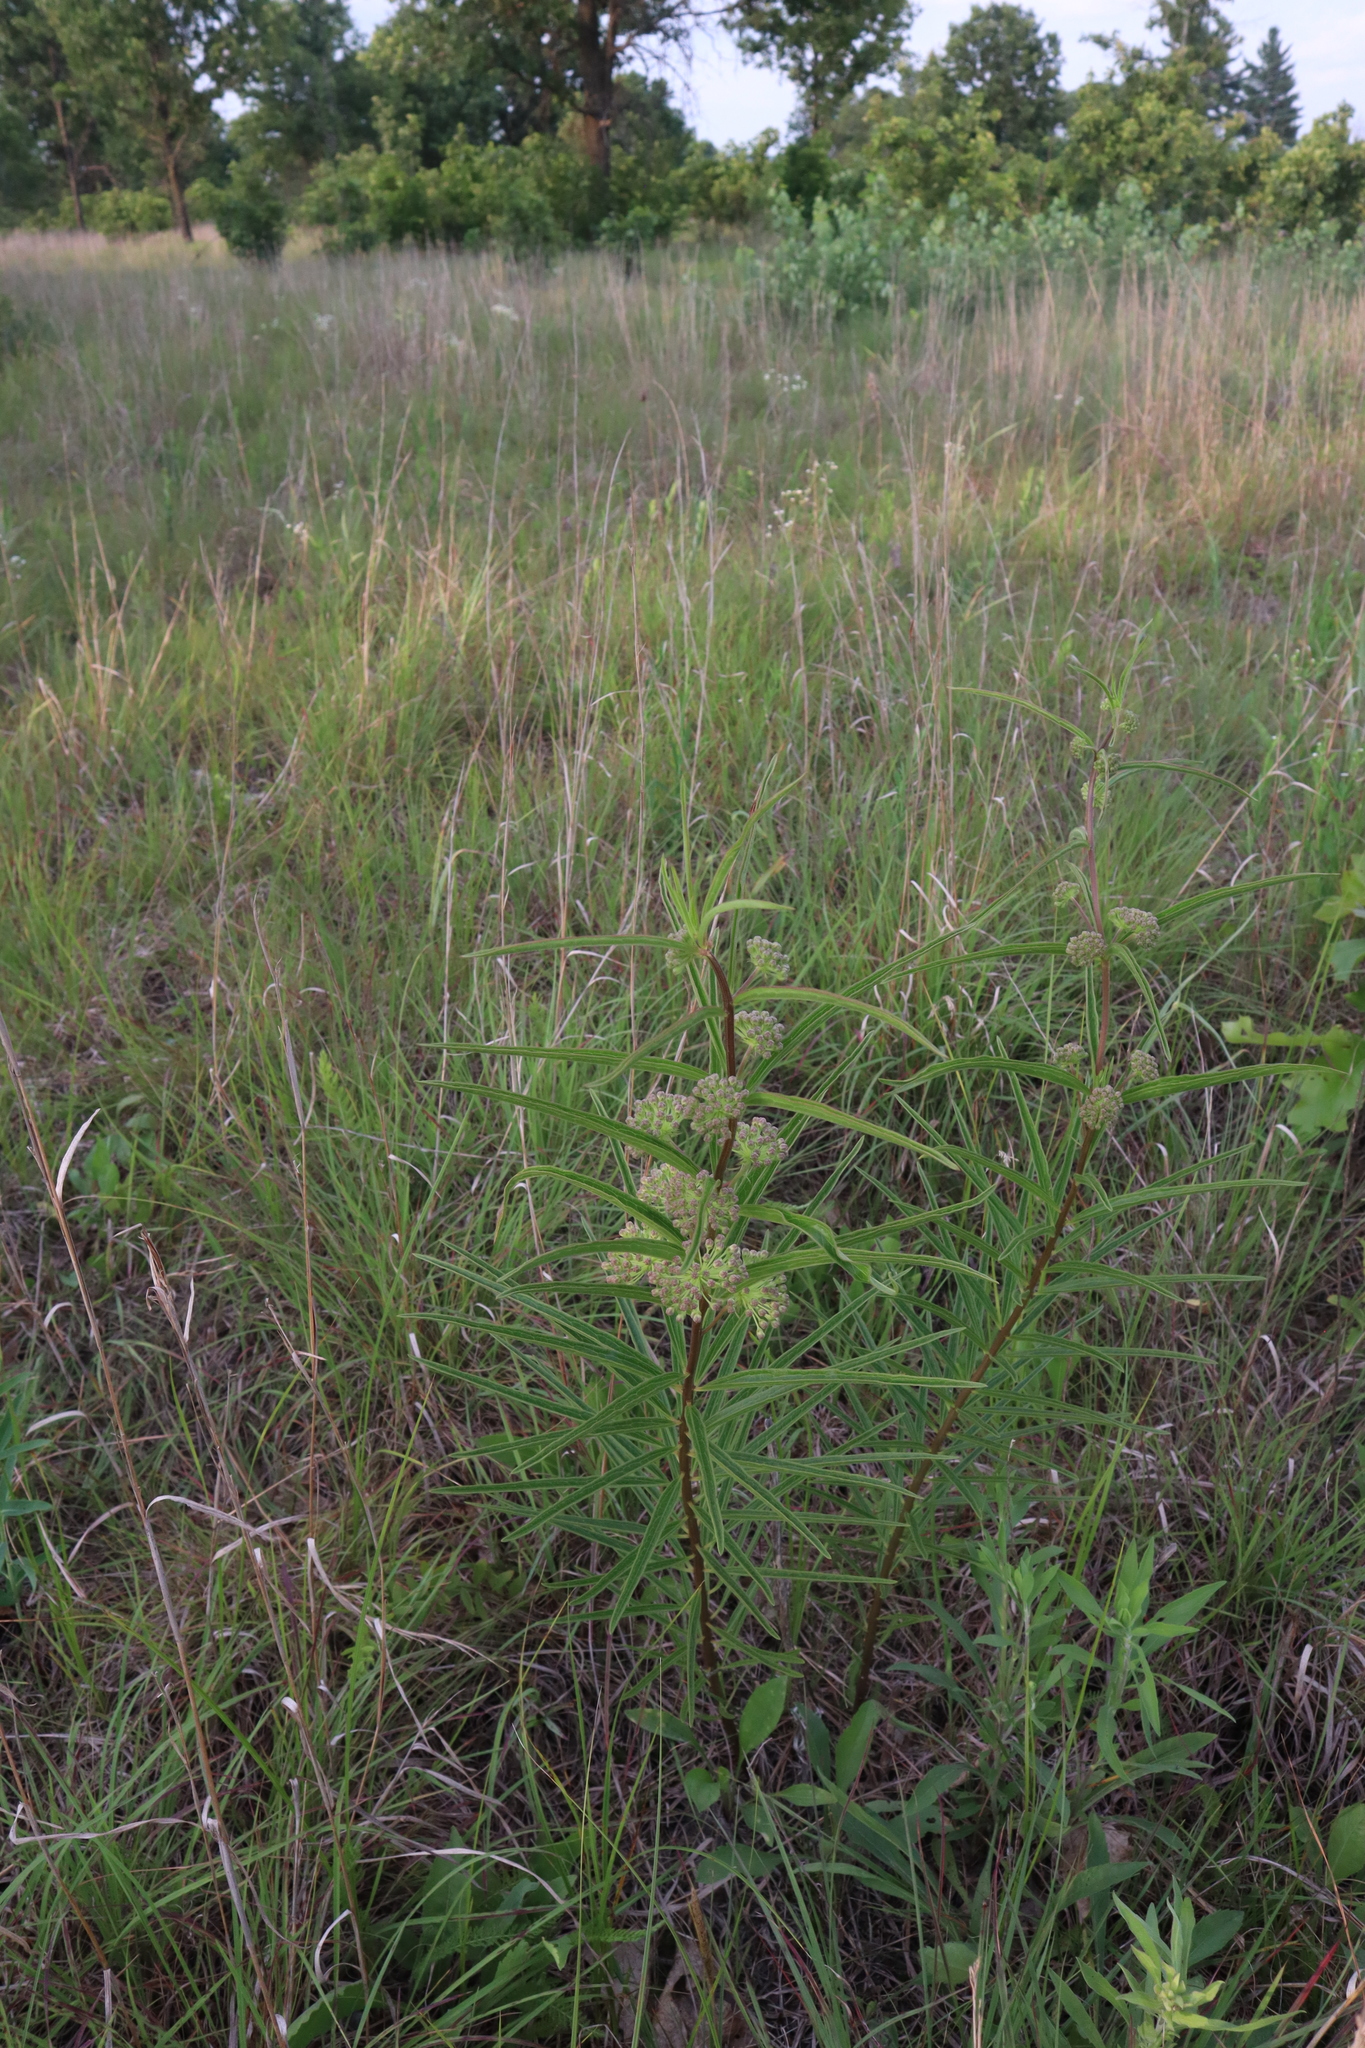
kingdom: Plantae
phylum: Tracheophyta
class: Magnoliopsida
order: Gentianales
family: Apocynaceae
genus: Asclepias
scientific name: Asclepias hirtella
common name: Prairie milkweed
